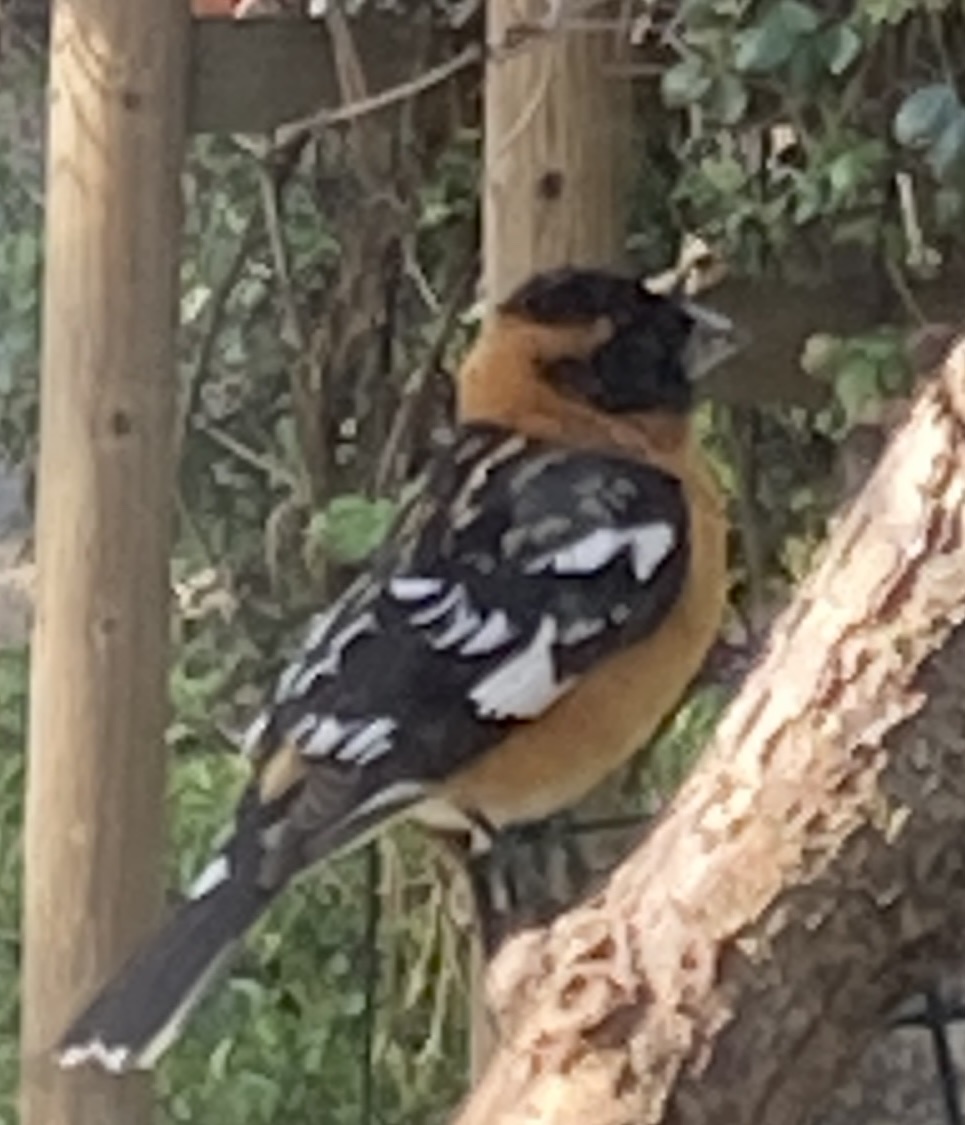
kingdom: Animalia
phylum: Chordata
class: Aves
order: Passeriformes
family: Cardinalidae
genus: Pheucticus
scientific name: Pheucticus melanocephalus
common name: Black-headed grosbeak
